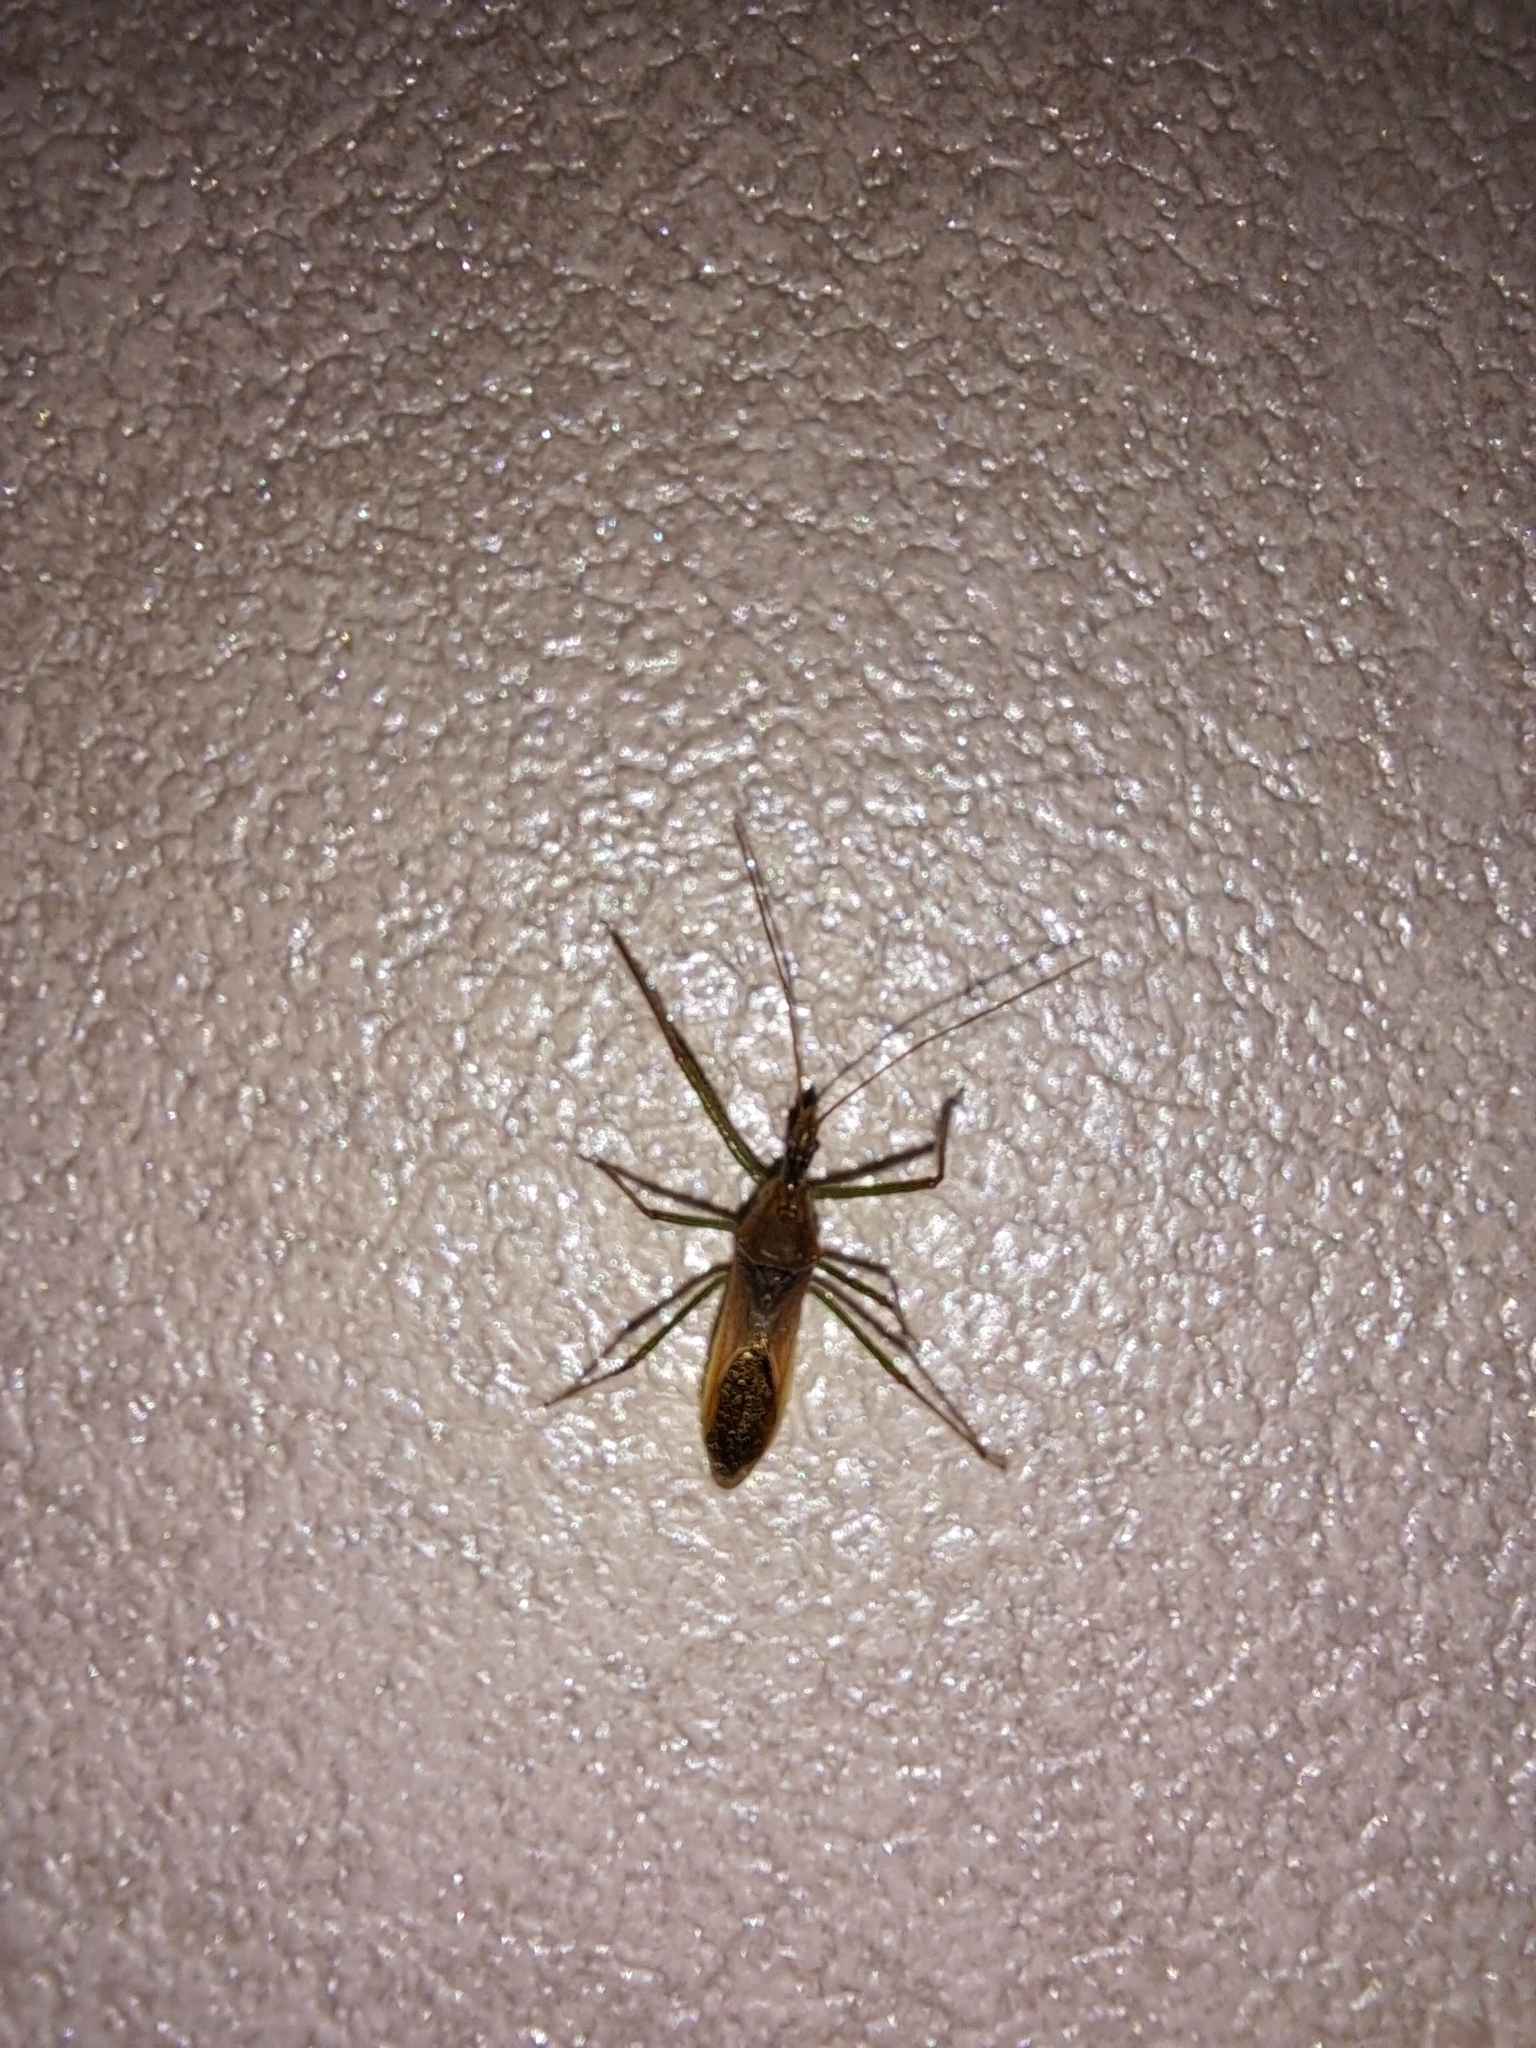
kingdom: Animalia
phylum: Arthropoda
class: Insecta
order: Hemiptera
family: Reduviidae
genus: Zelus
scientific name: Zelus renardii
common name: Assassin bug
